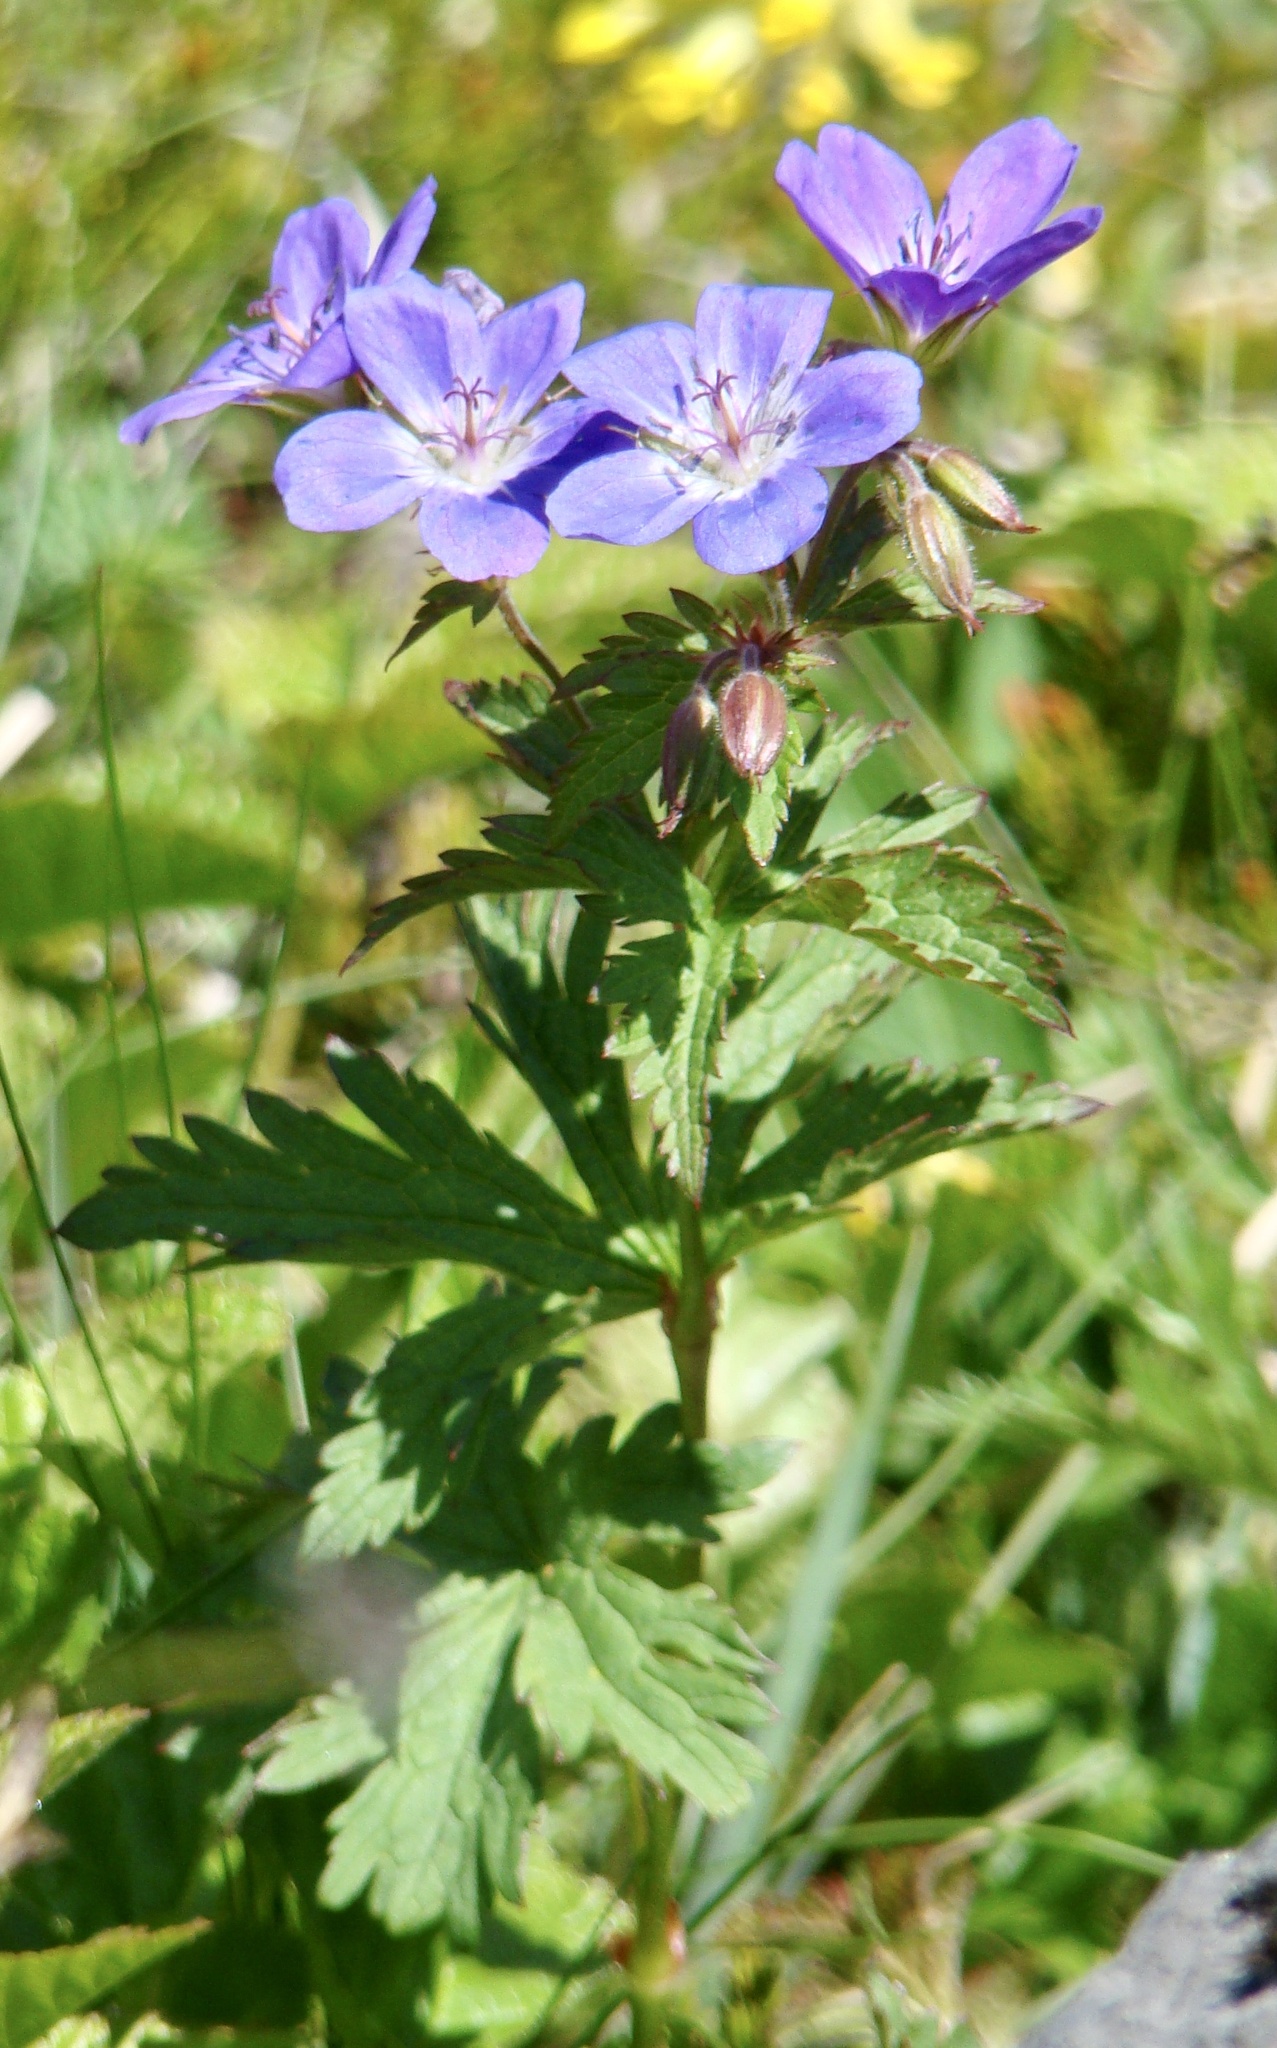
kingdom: Plantae
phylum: Tracheophyta
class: Magnoliopsida
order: Geraniales
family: Geraniaceae
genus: Geranium
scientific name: Geranium sylvaticum
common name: Wood crane's-bill
